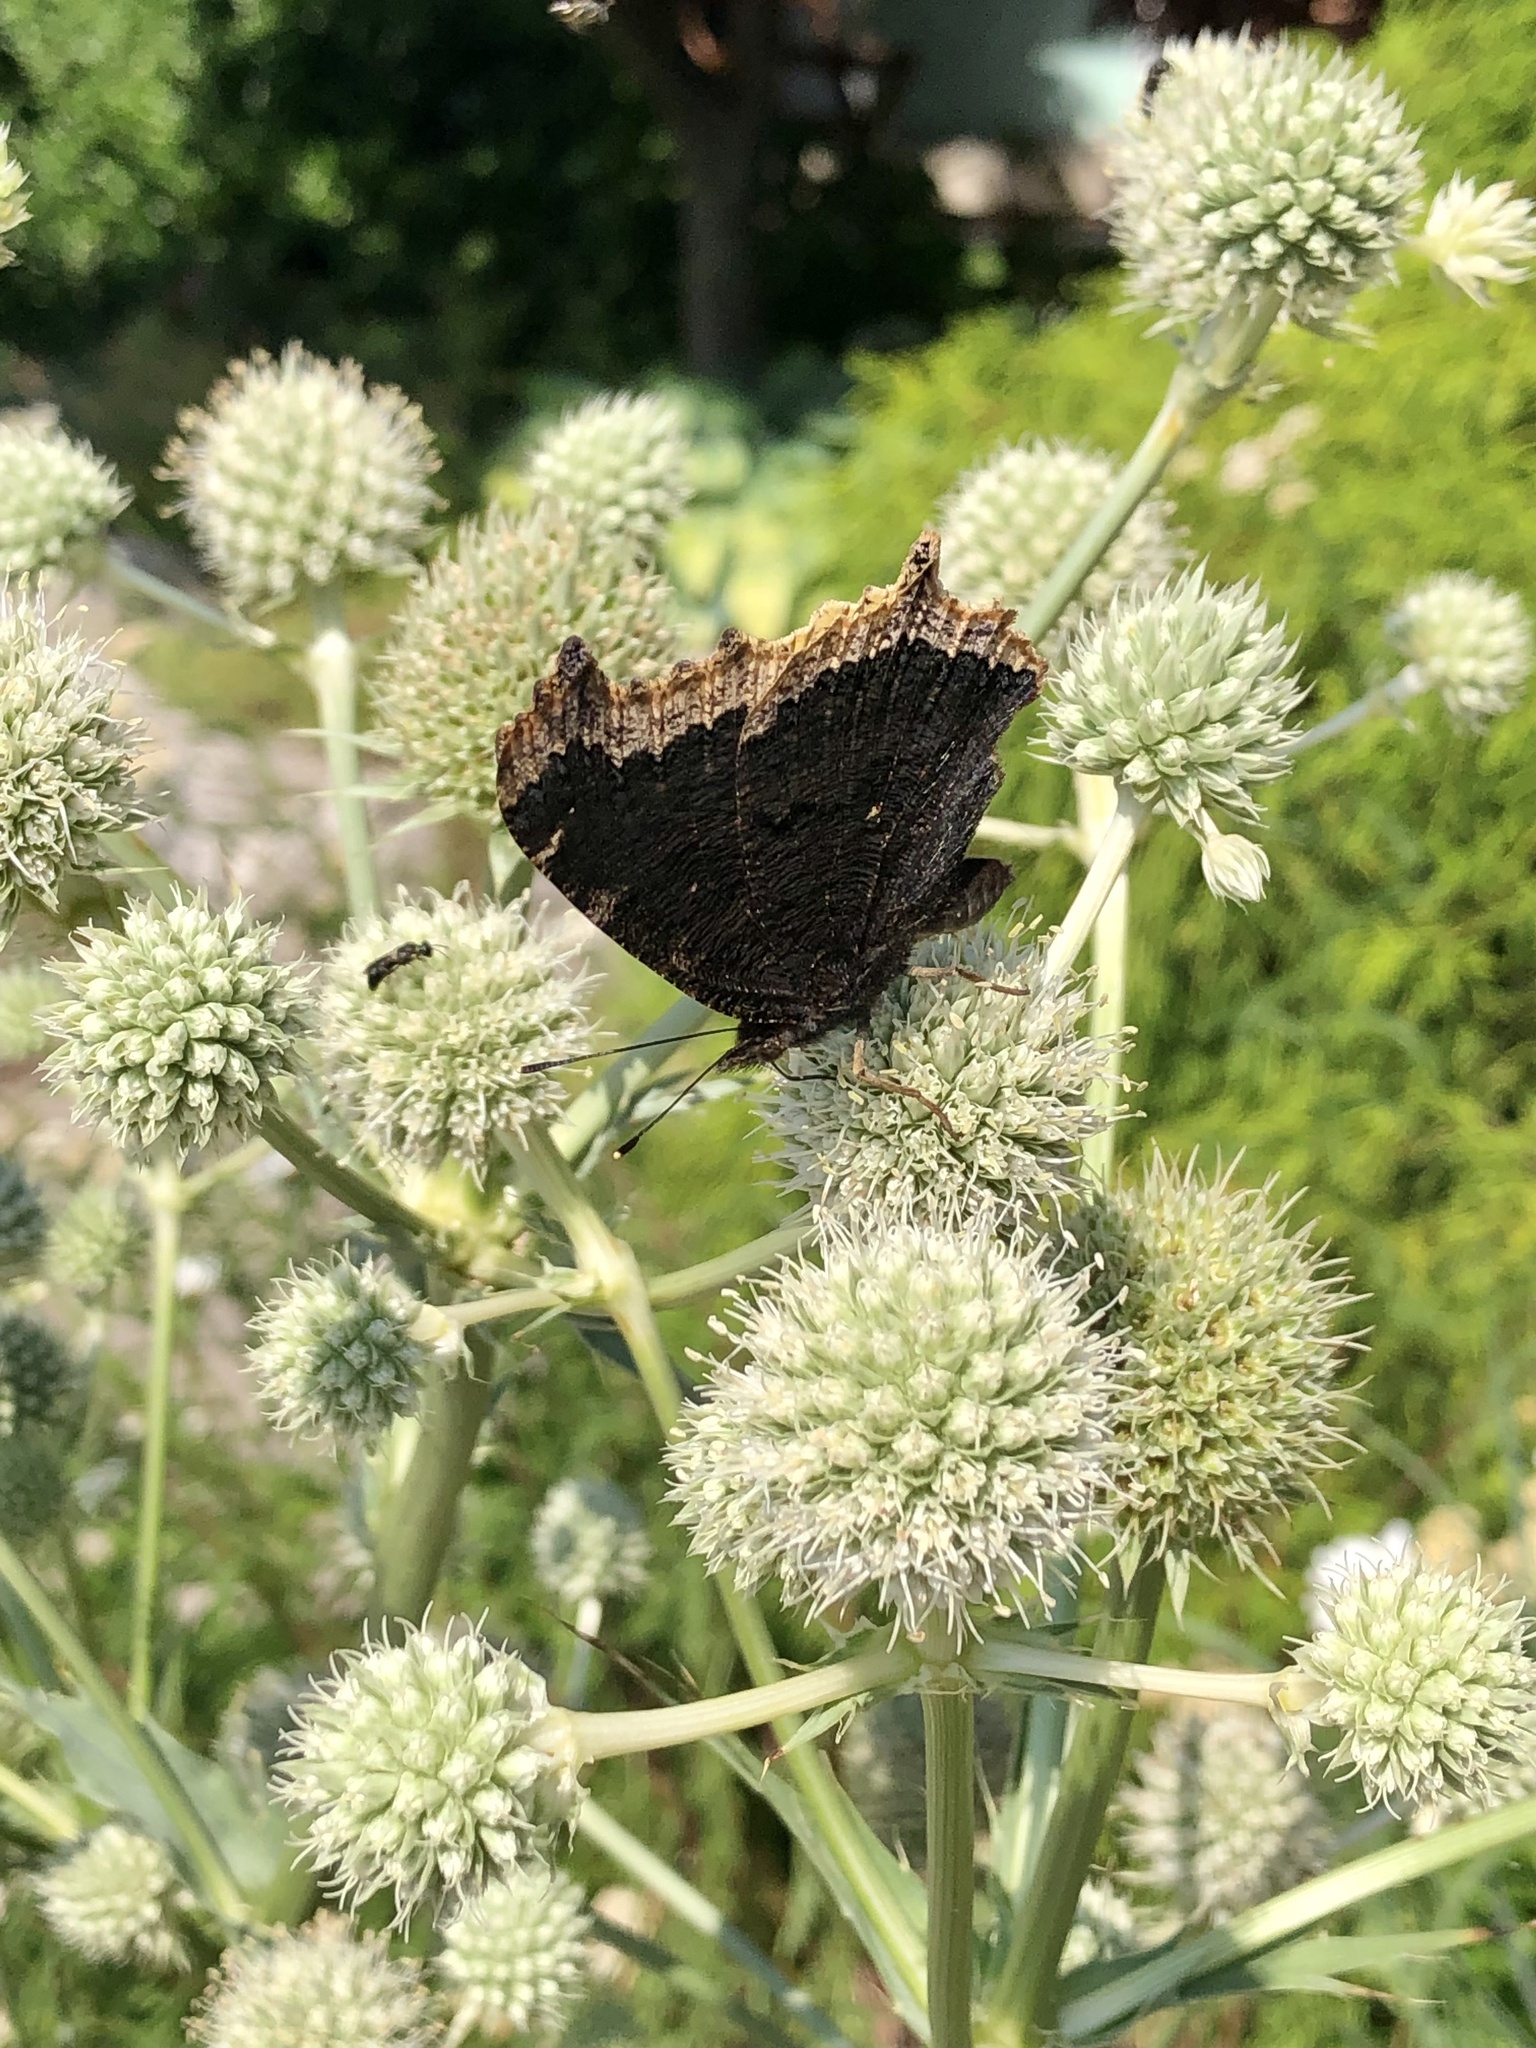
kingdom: Animalia
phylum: Arthropoda
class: Insecta
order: Lepidoptera
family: Nymphalidae
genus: Nymphalis
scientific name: Nymphalis antiopa
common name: Camberwell beauty
